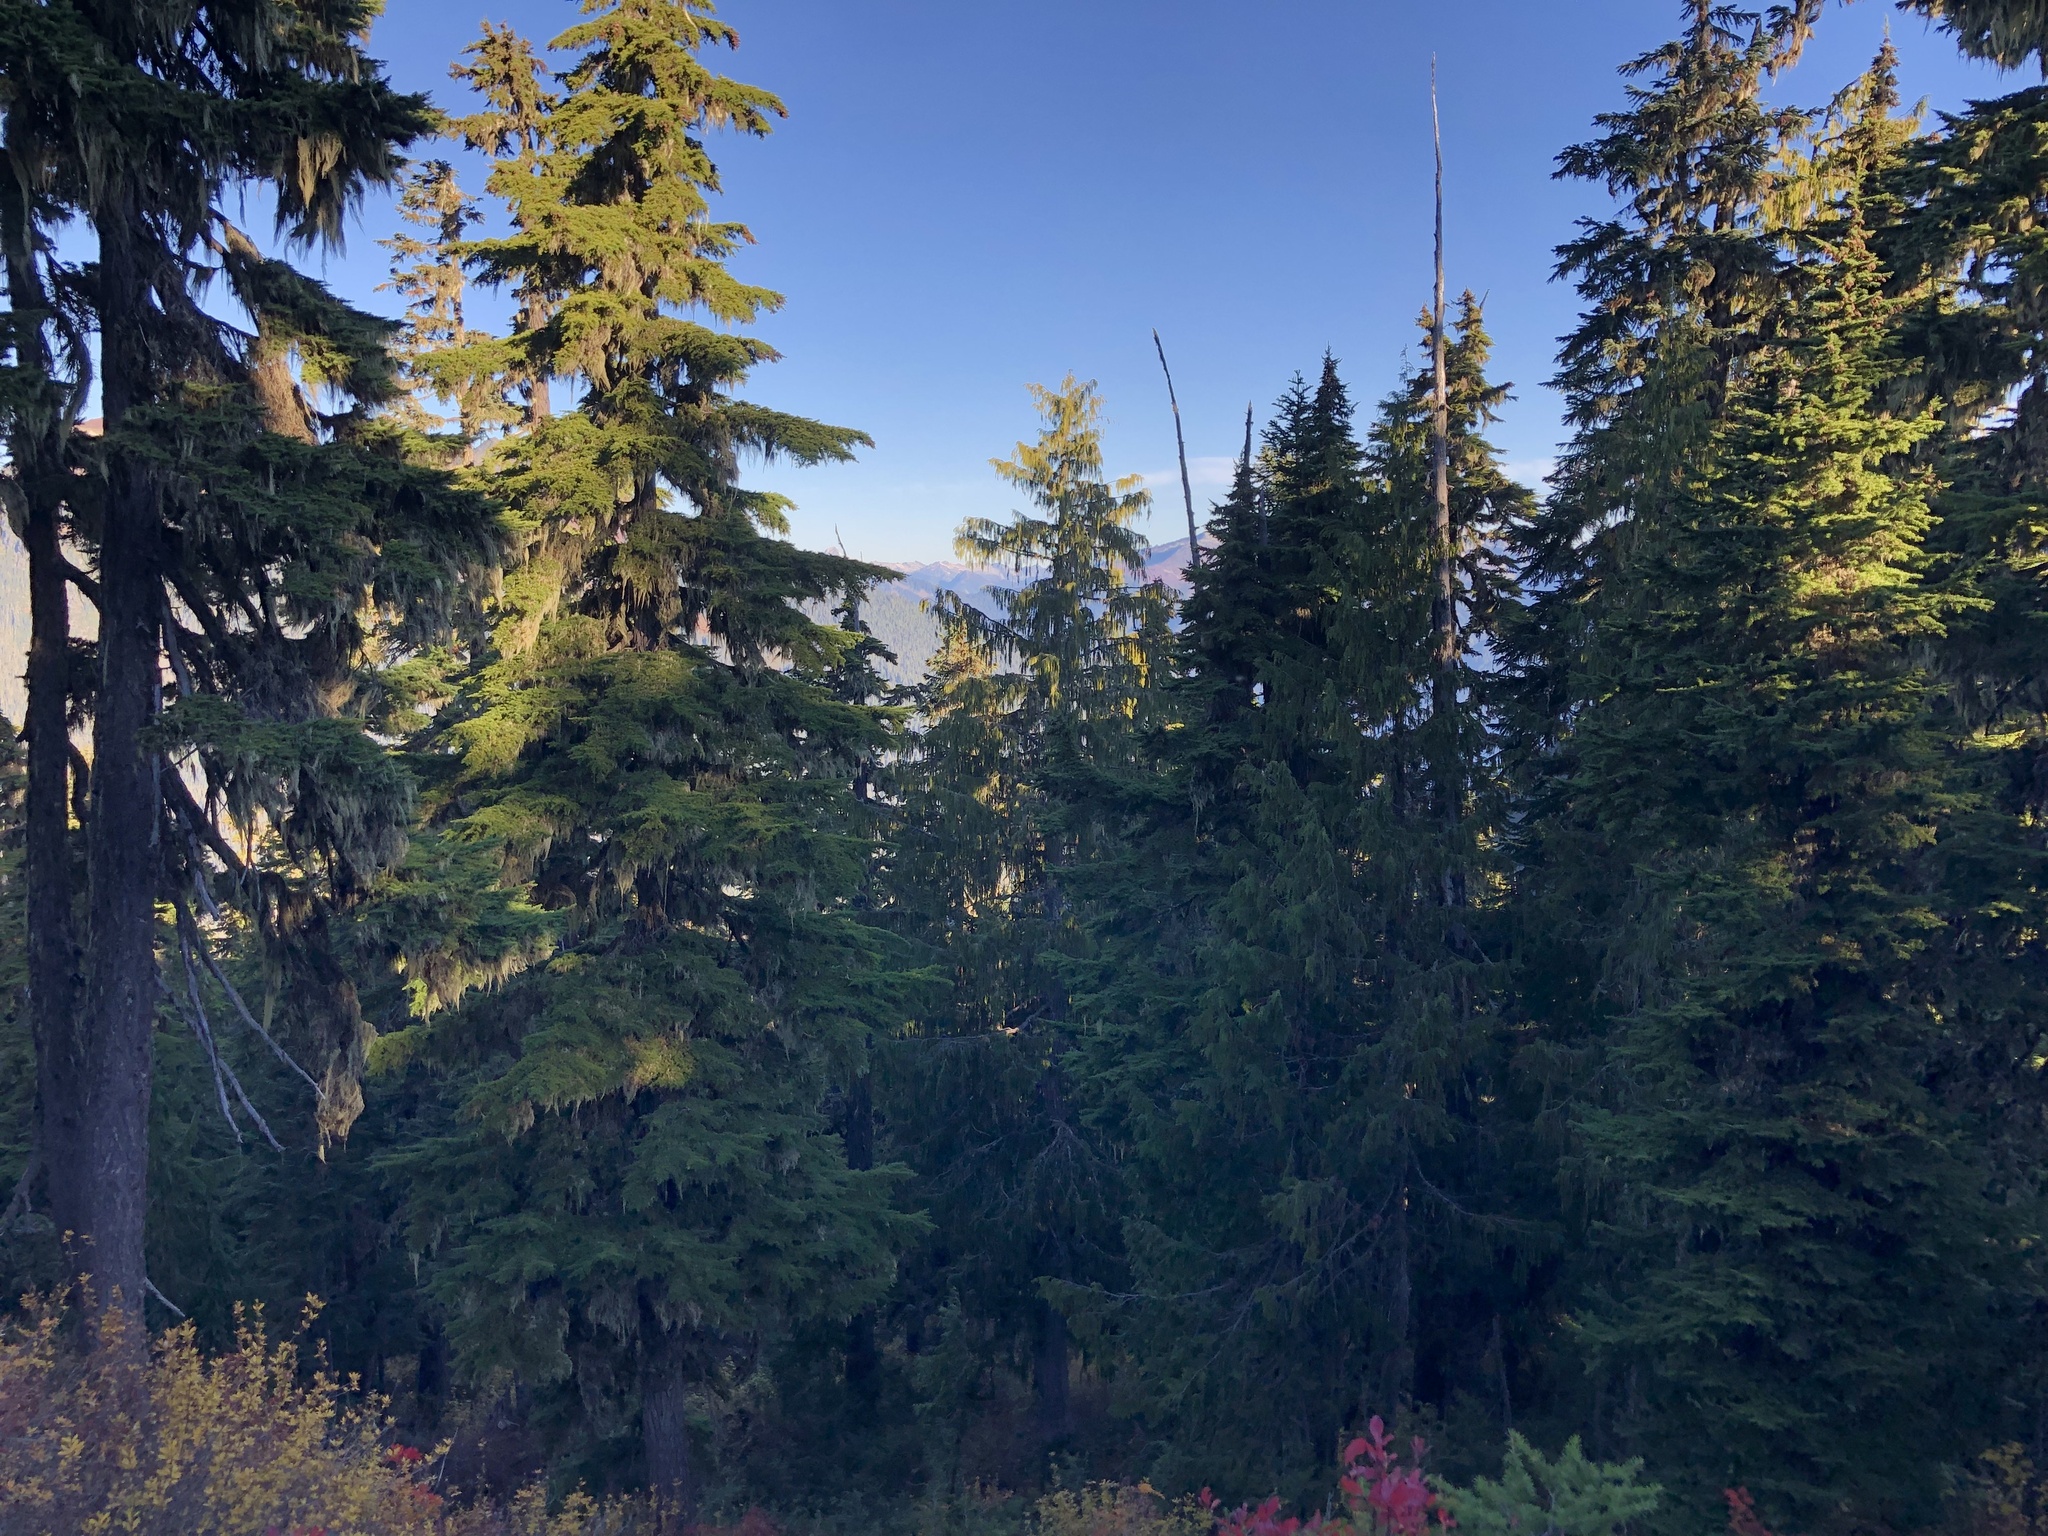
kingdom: Plantae
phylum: Tracheophyta
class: Pinopsida
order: Pinales
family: Cupressaceae
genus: Xanthocyparis
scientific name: Xanthocyparis nootkatensis
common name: Nootka cypress
